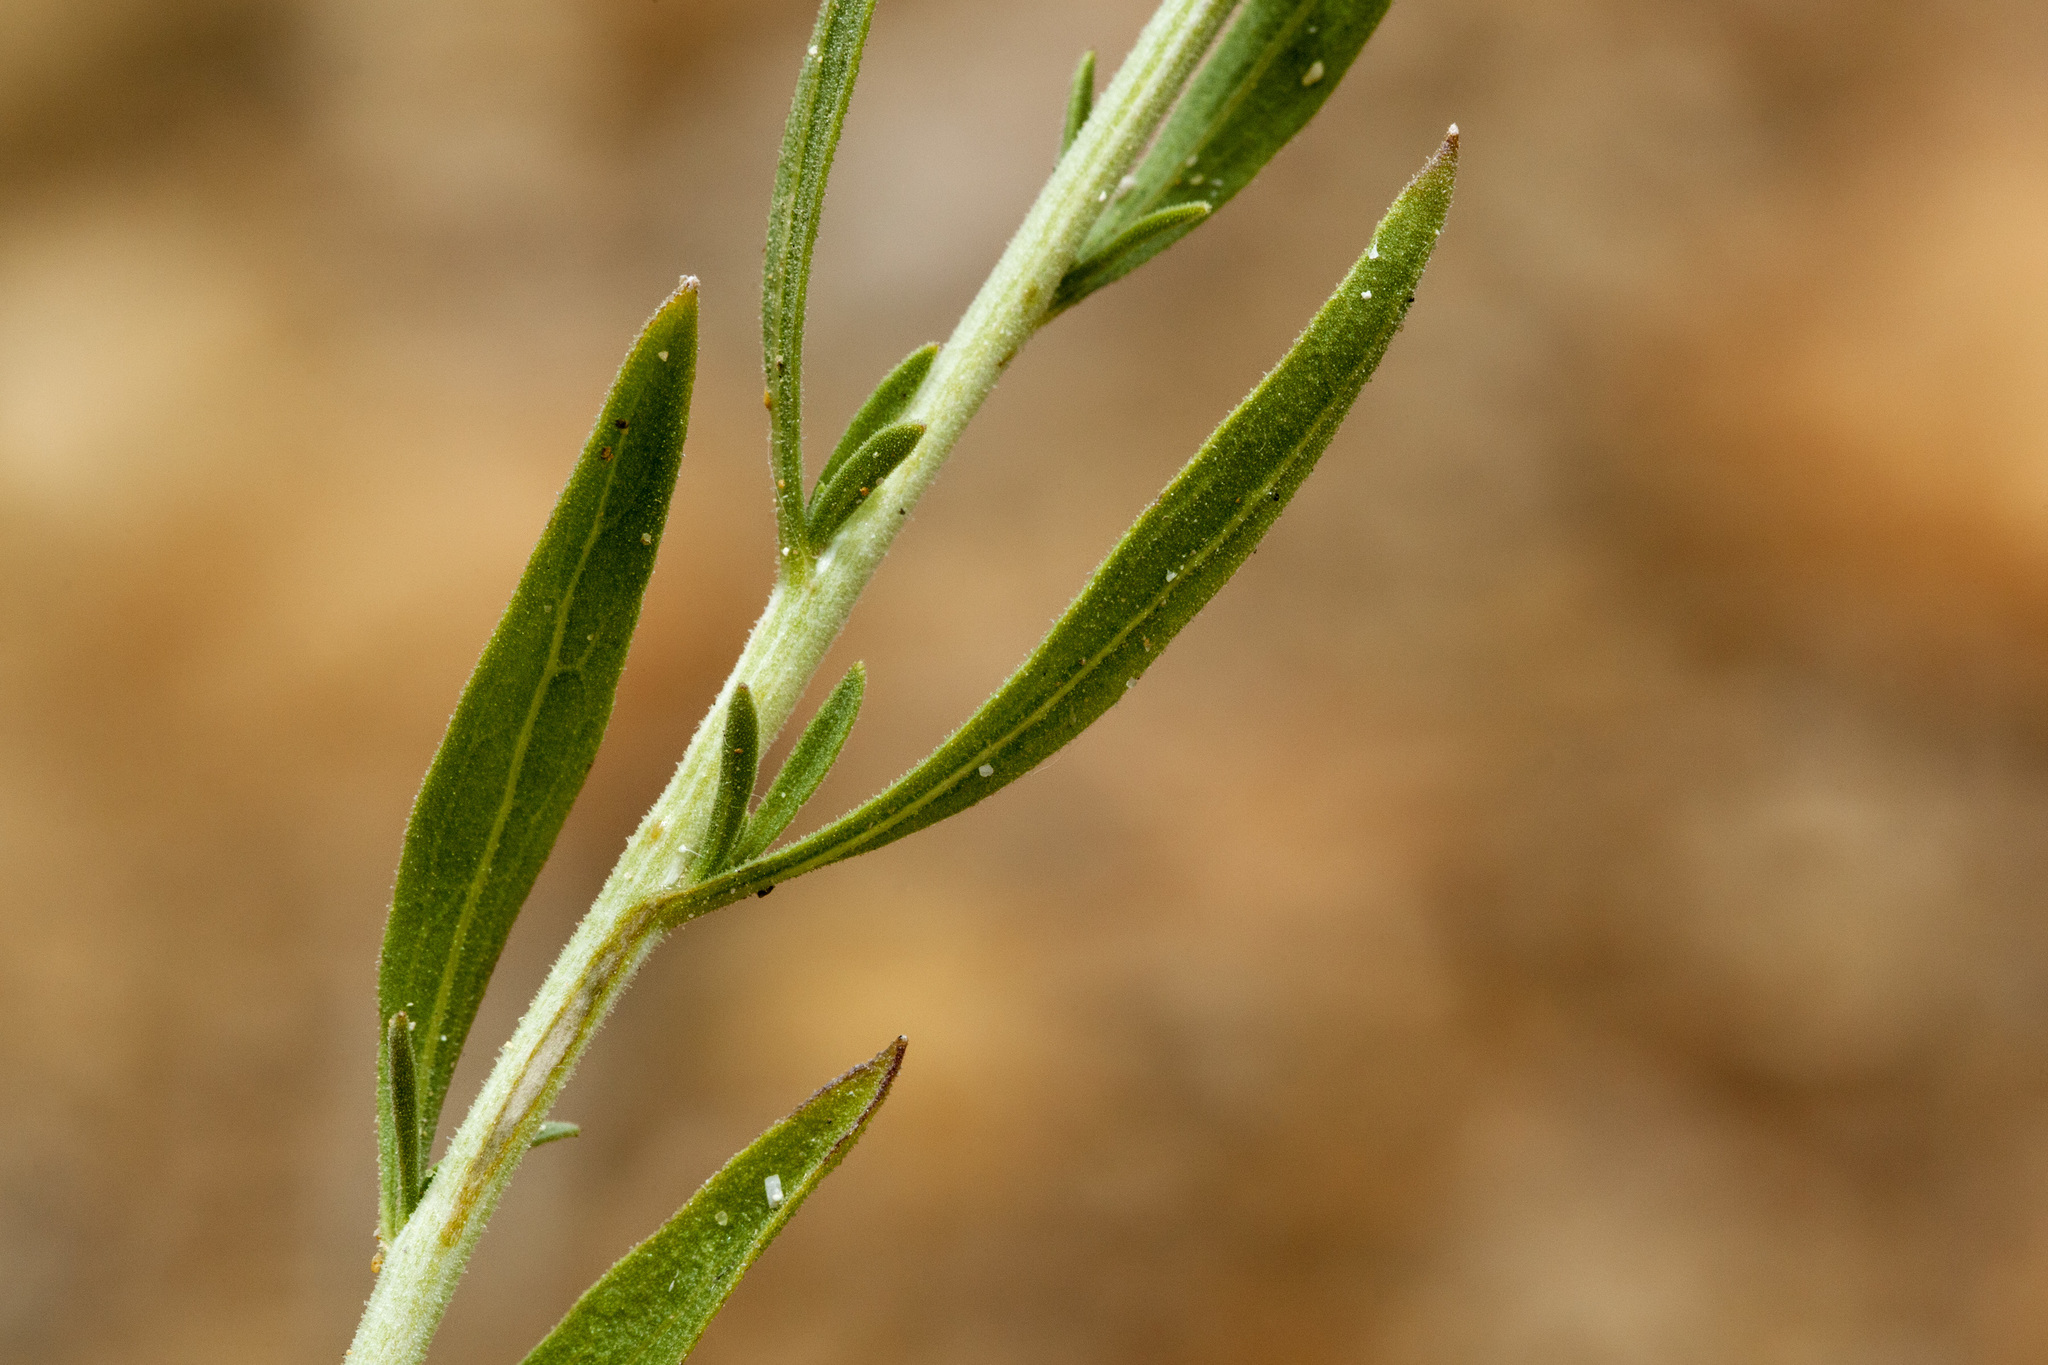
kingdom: Plantae
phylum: Tracheophyta
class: Magnoliopsida
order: Asterales
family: Asteraceae
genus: Brickellia
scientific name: Brickellia oblongifolia
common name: Mojave brickellbush
